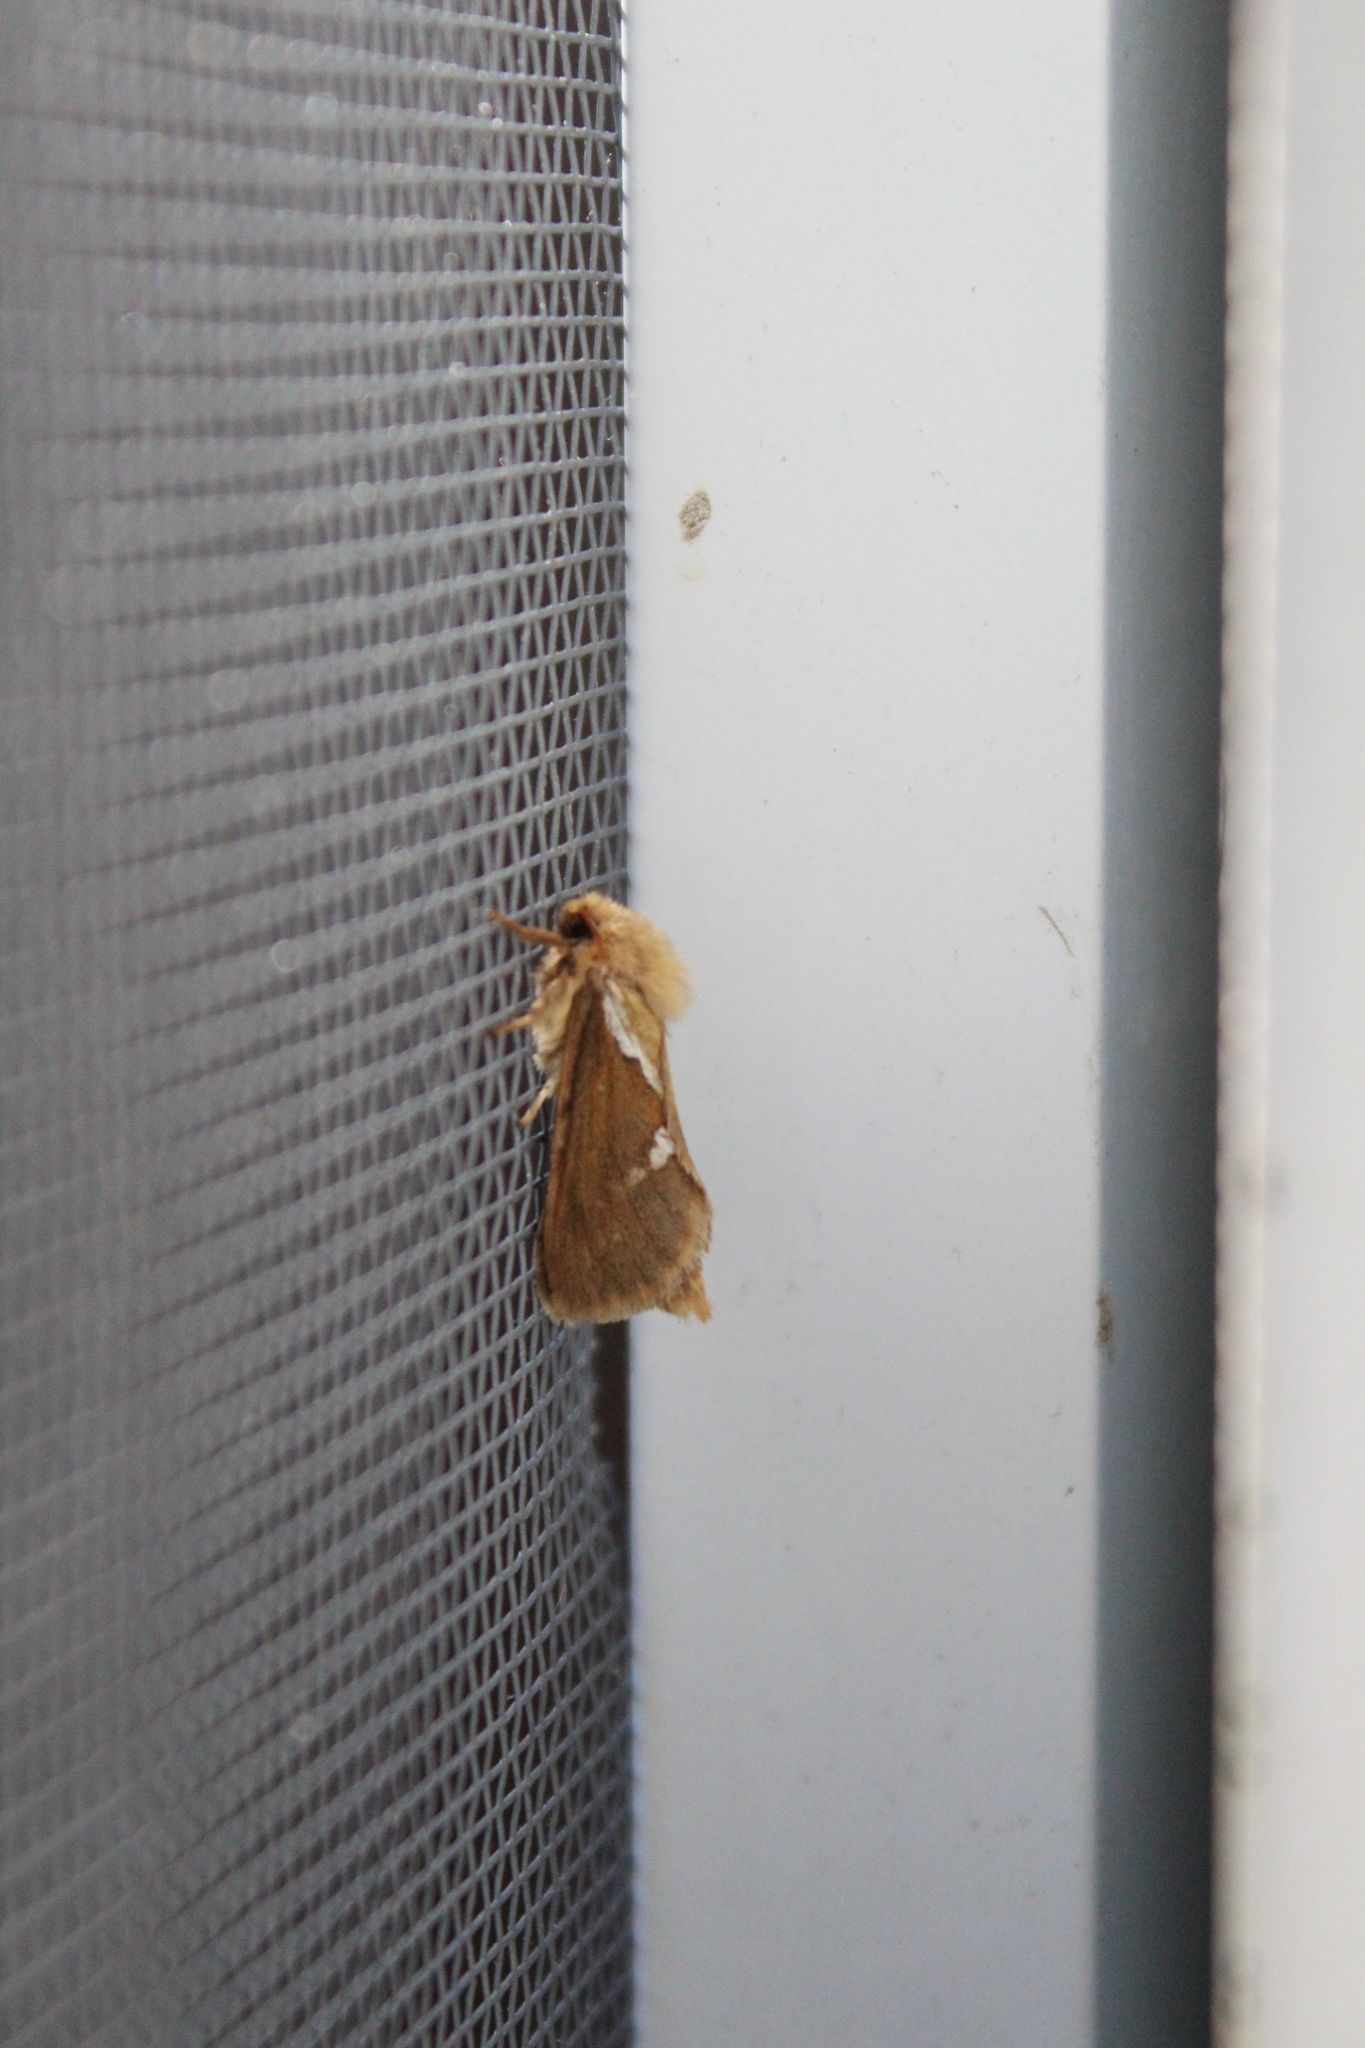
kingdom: Animalia
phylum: Arthropoda
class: Insecta
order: Lepidoptera
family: Hepialidae
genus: Korscheltellus
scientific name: Korscheltellus lupulina
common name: Common swift
